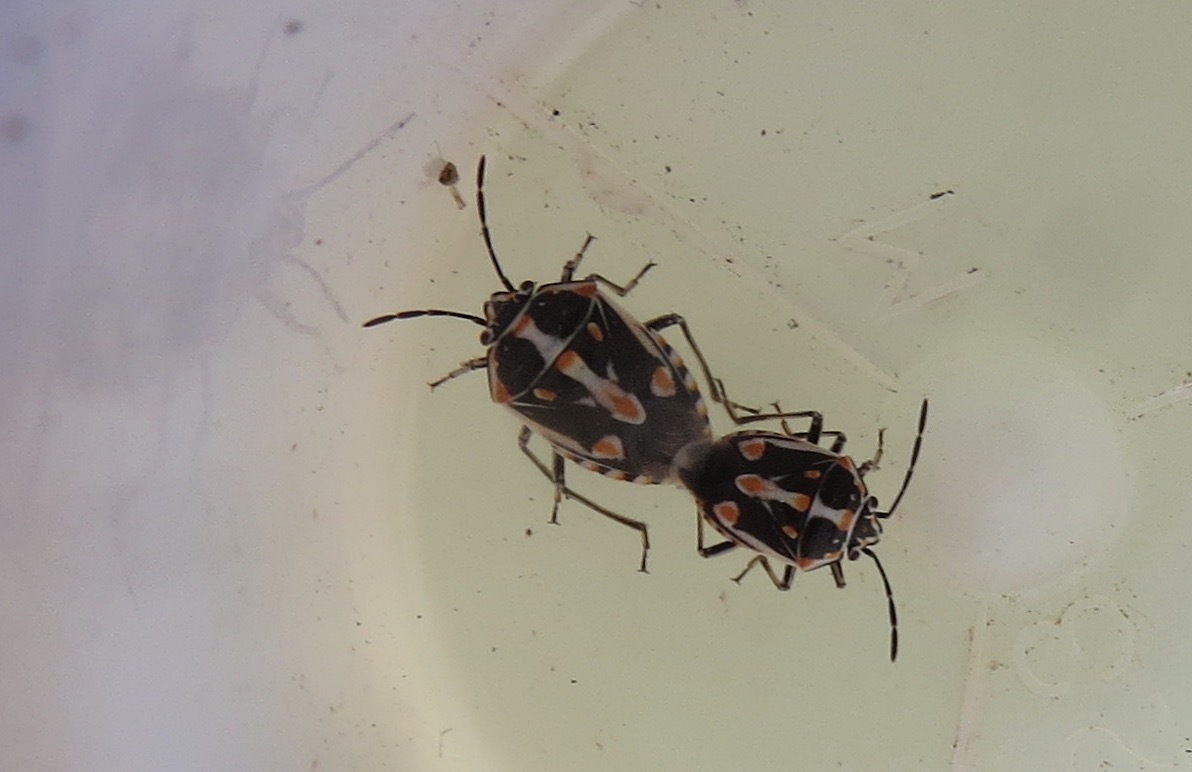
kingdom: Animalia
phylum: Arthropoda
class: Insecta
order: Hemiptera
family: Pentatomidae
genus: Bagrada
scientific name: Bagrada hilaris
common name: Bagrada bug
